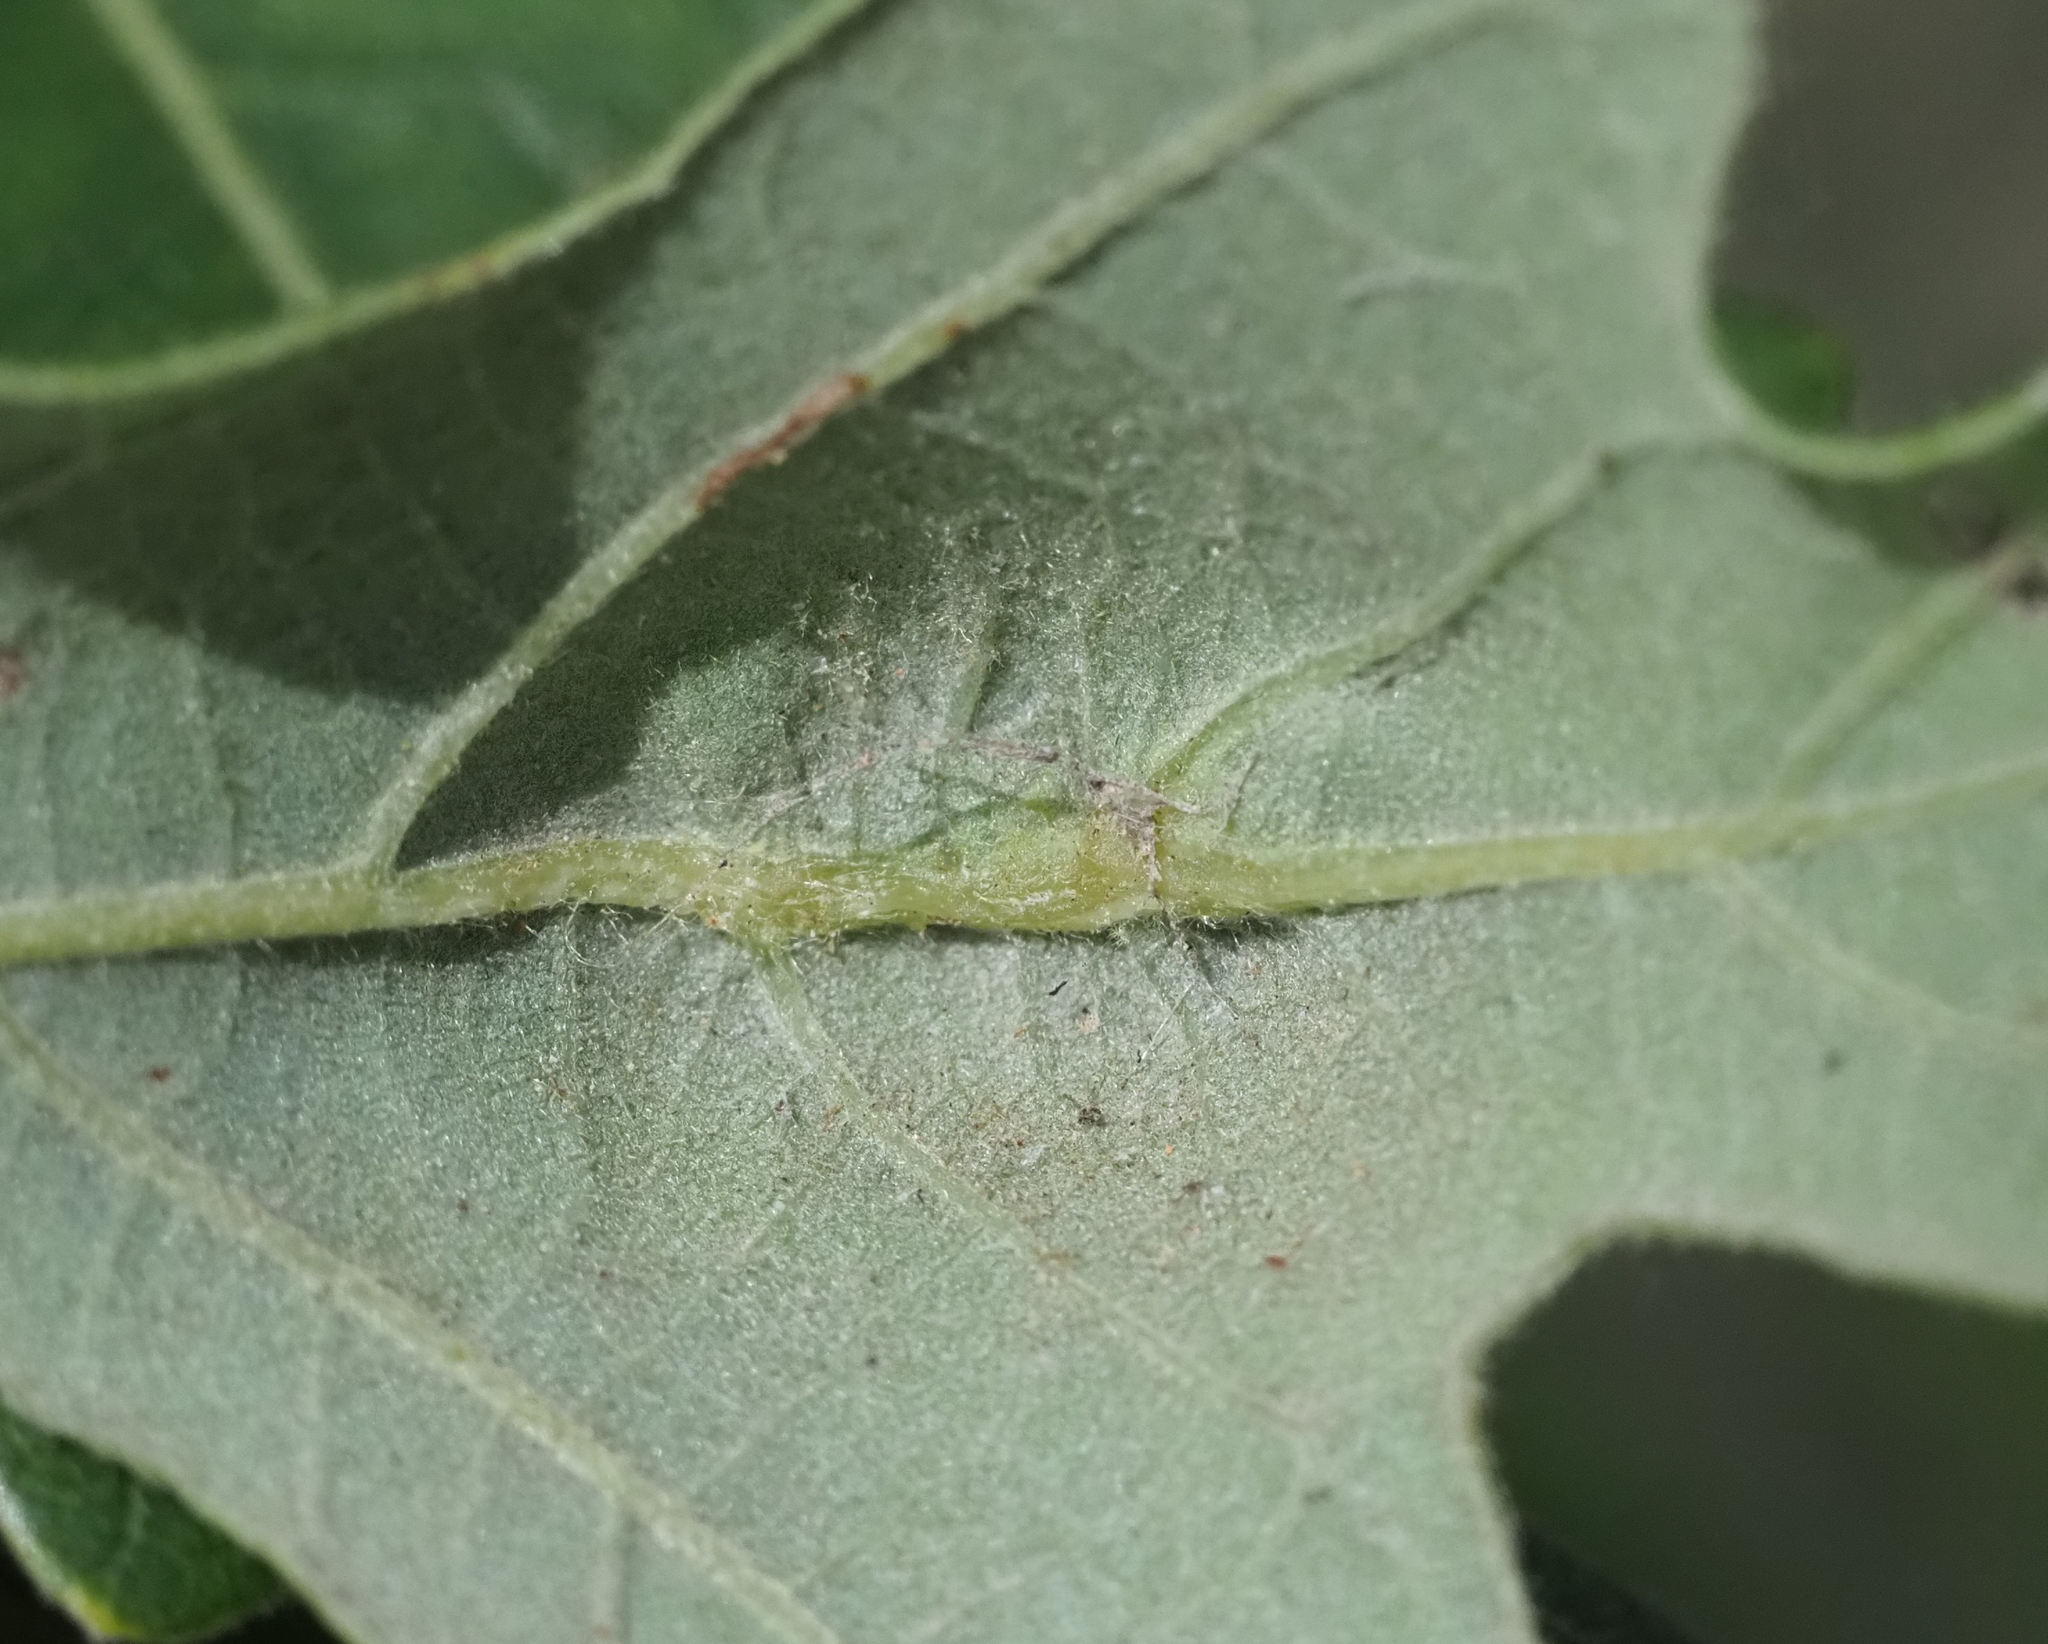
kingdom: Animalia
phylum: Arthropoda
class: Insecta
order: Hymenoptera
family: Cynipidae
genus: Bassettia
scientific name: Bassettia flavipes
